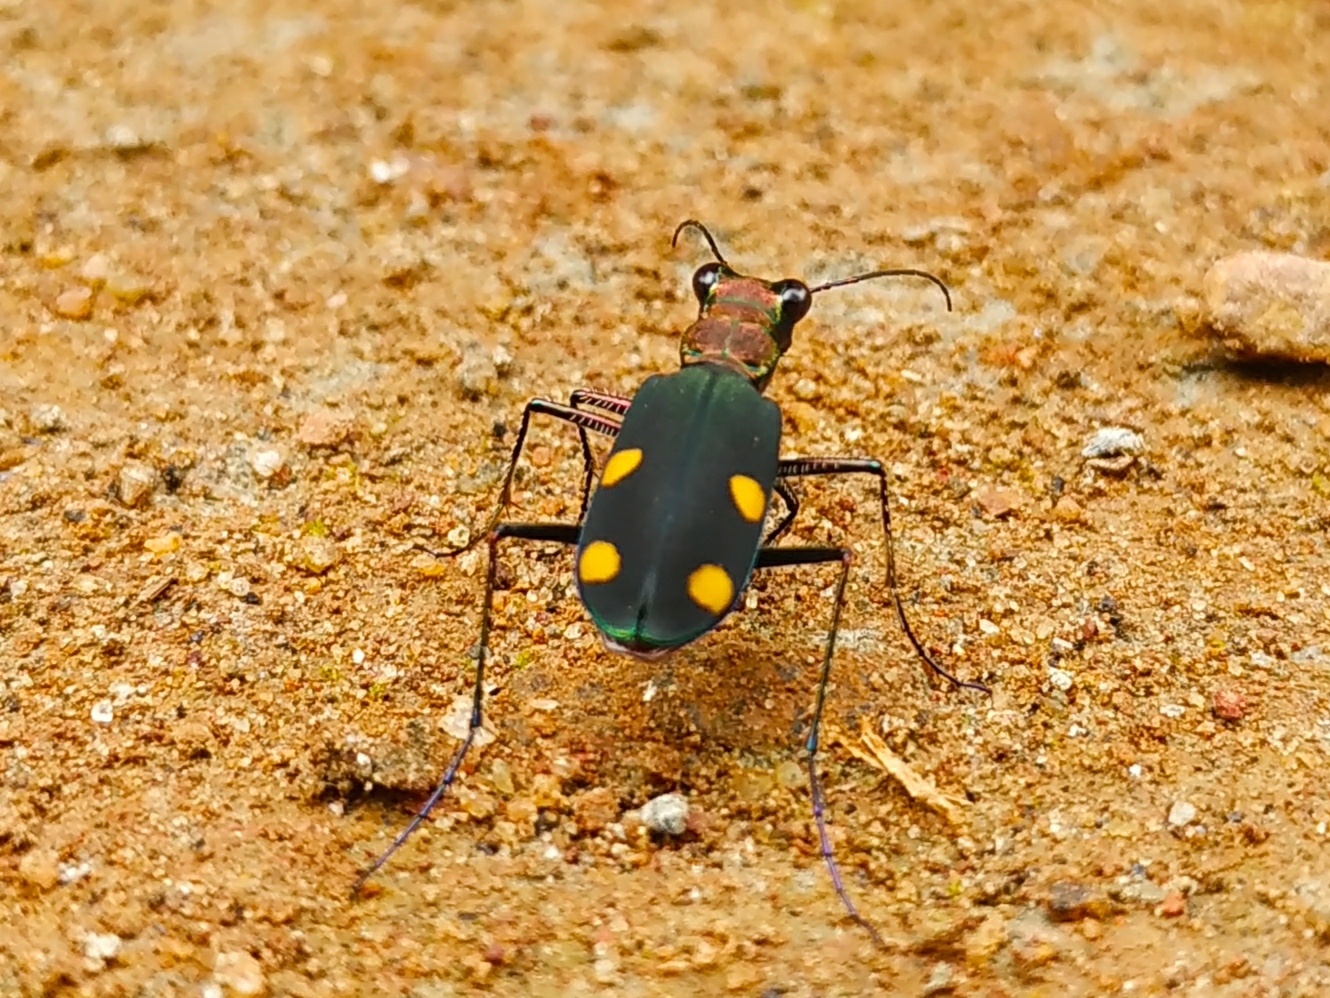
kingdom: Animalia
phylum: Arthropoda
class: Insecta
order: Coleoptera
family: Carabidae
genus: Cicindela
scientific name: Cicindela bicolor
